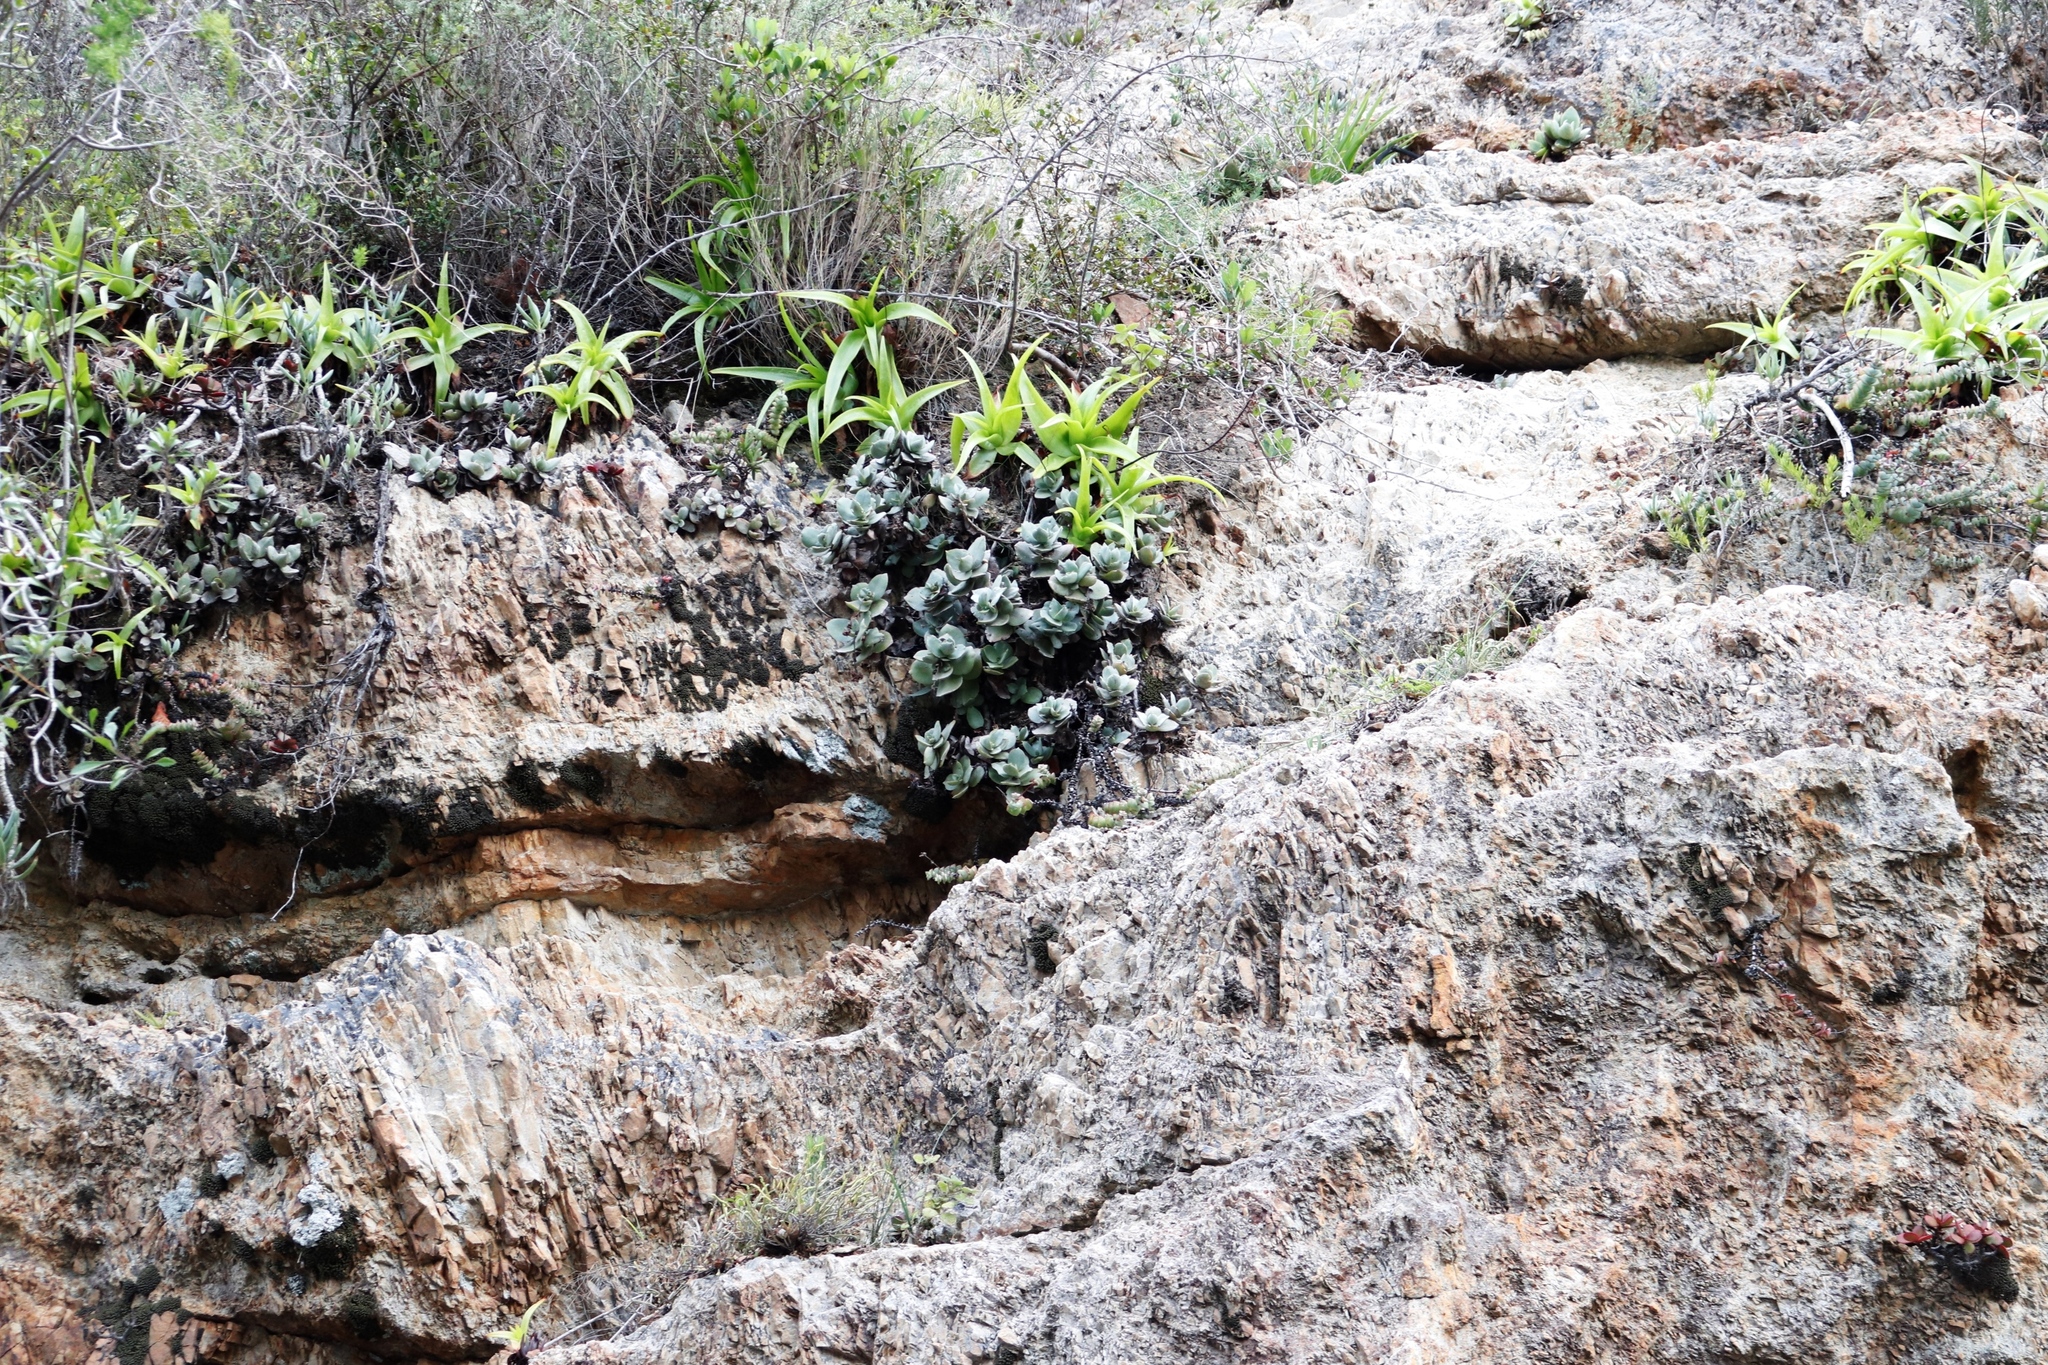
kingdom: Plantae
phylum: Tracheophyta
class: Magnoliopsida
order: Saxifragales
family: Crassulaceae
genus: Crassula
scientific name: Crassula lactea
